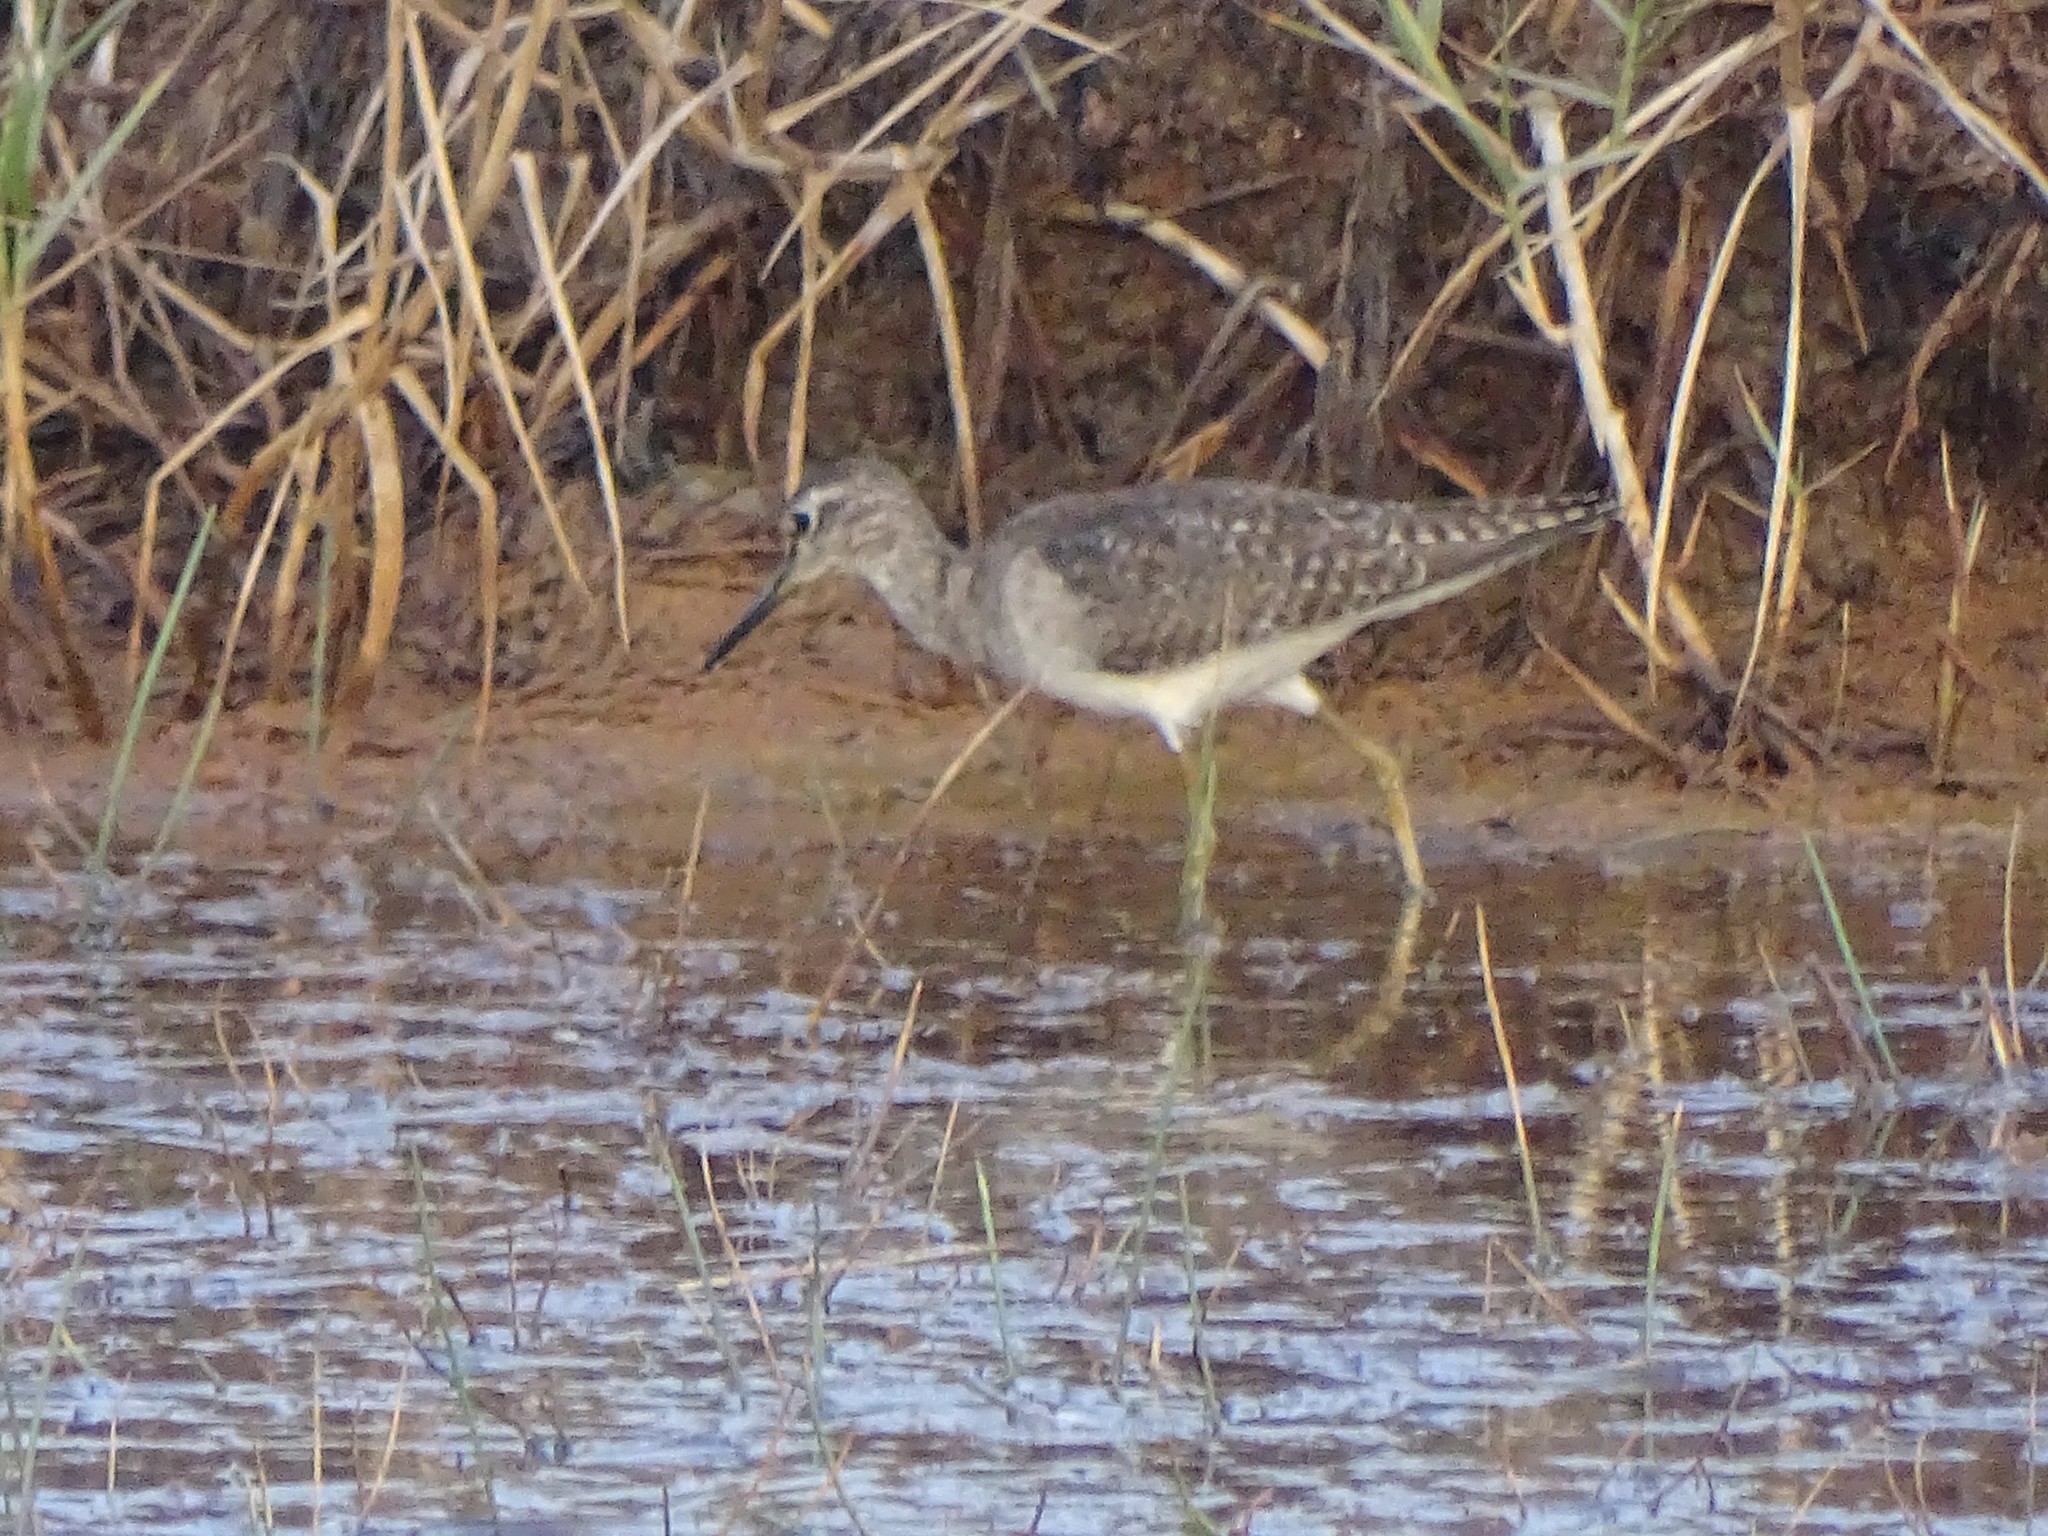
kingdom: Animalia
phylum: Chordata
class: Aves
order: Charadriiformes
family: Scolopacidae
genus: Tringa
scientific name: Tringa glareola
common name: Wood sandpiper
